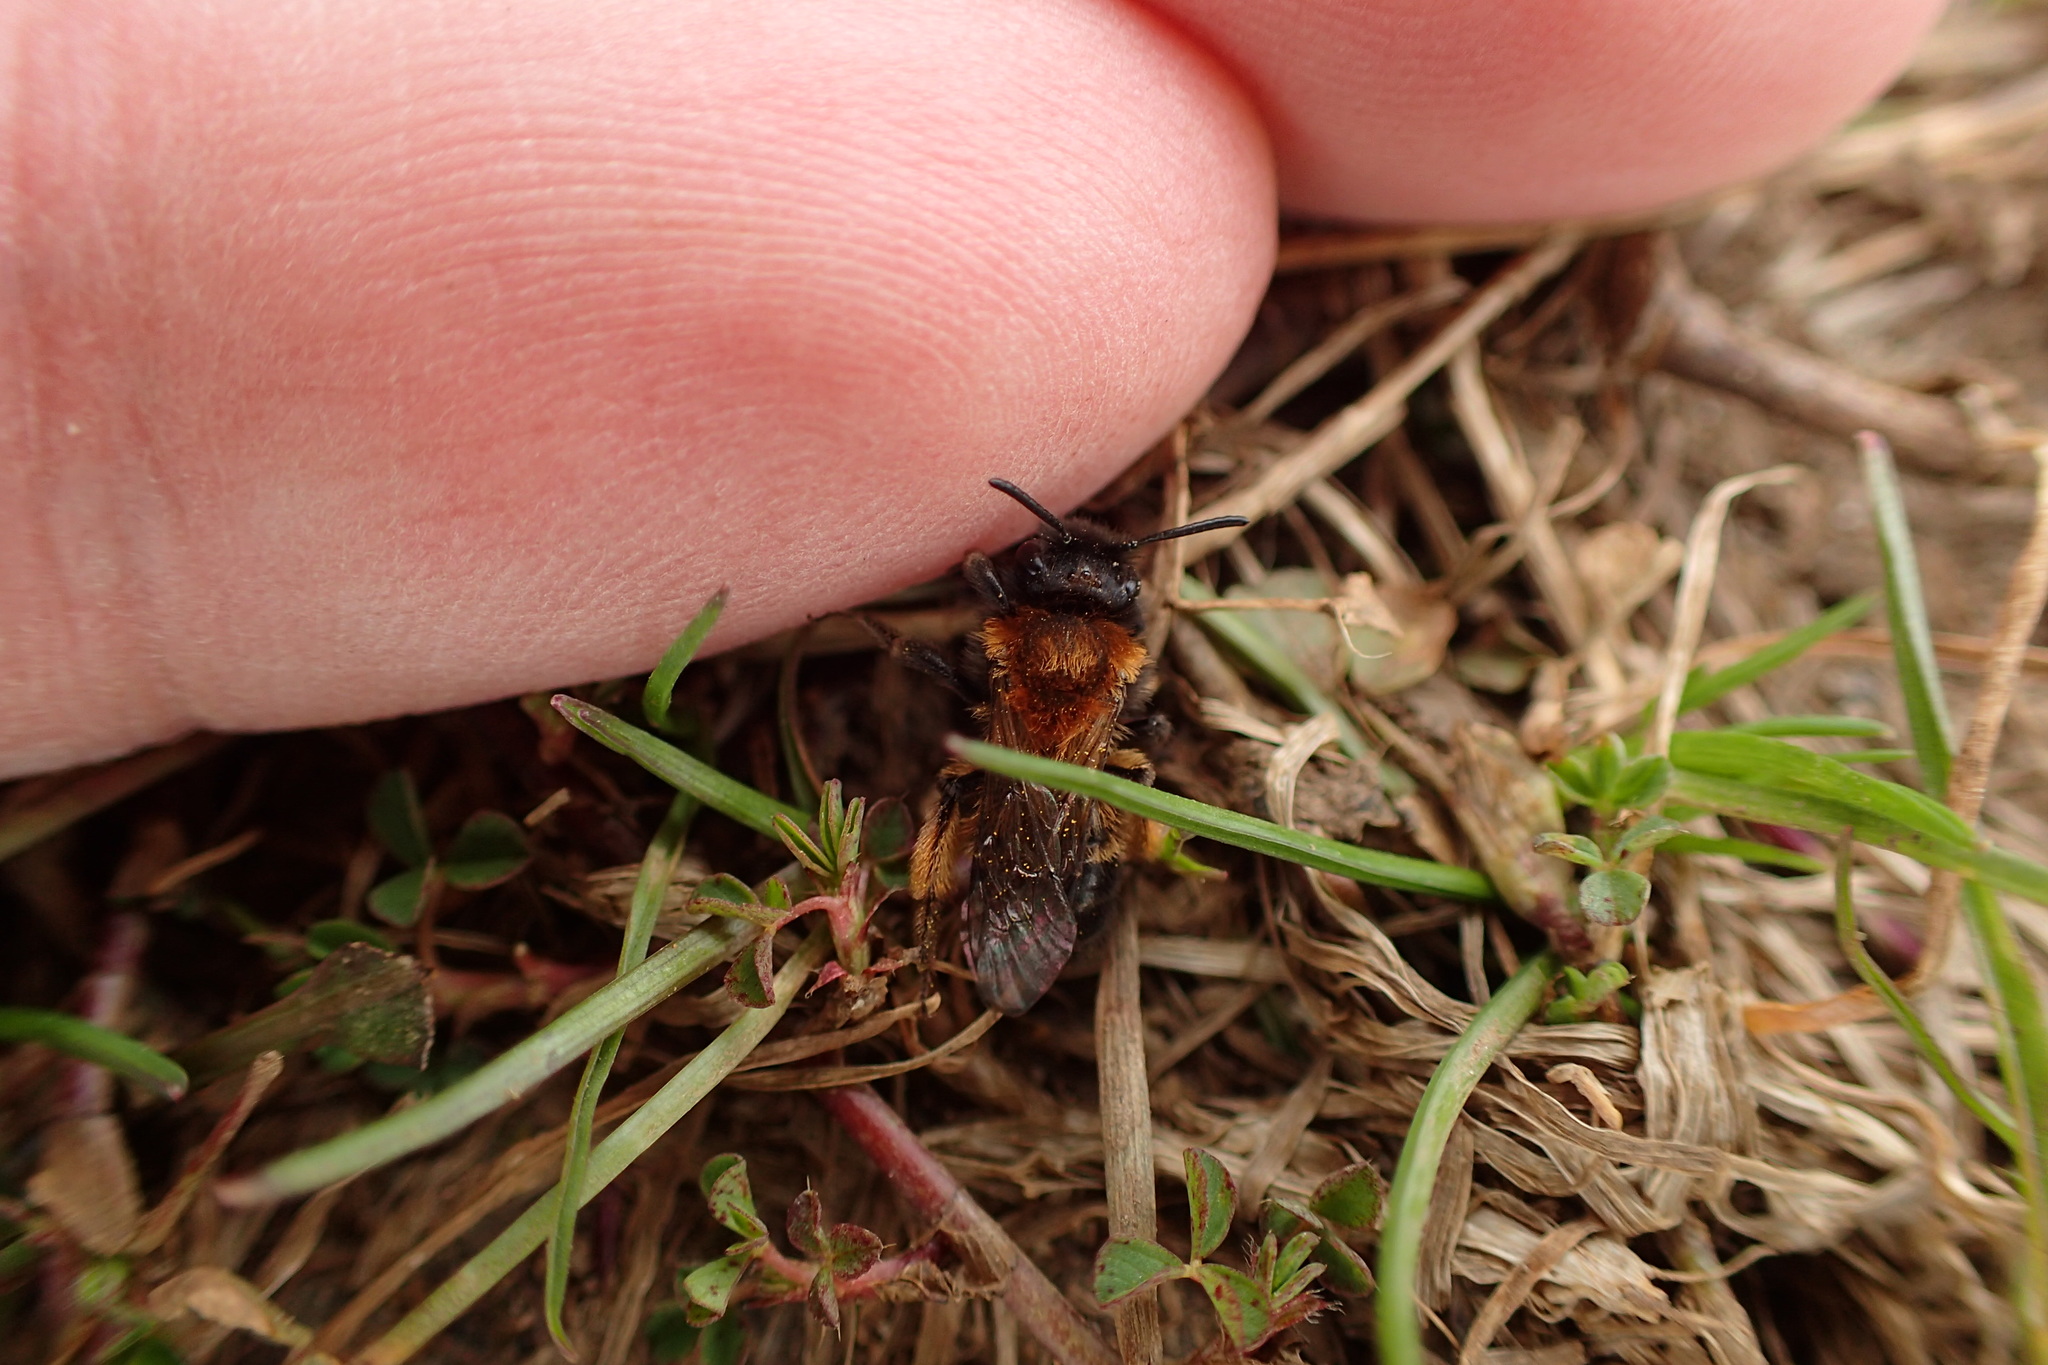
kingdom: Animalia
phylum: Arthropoda
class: Insecta
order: Hymenoptera
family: Andrenidae
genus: Andrena
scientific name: Andrena bicolor
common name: Gwynne's mining bee
